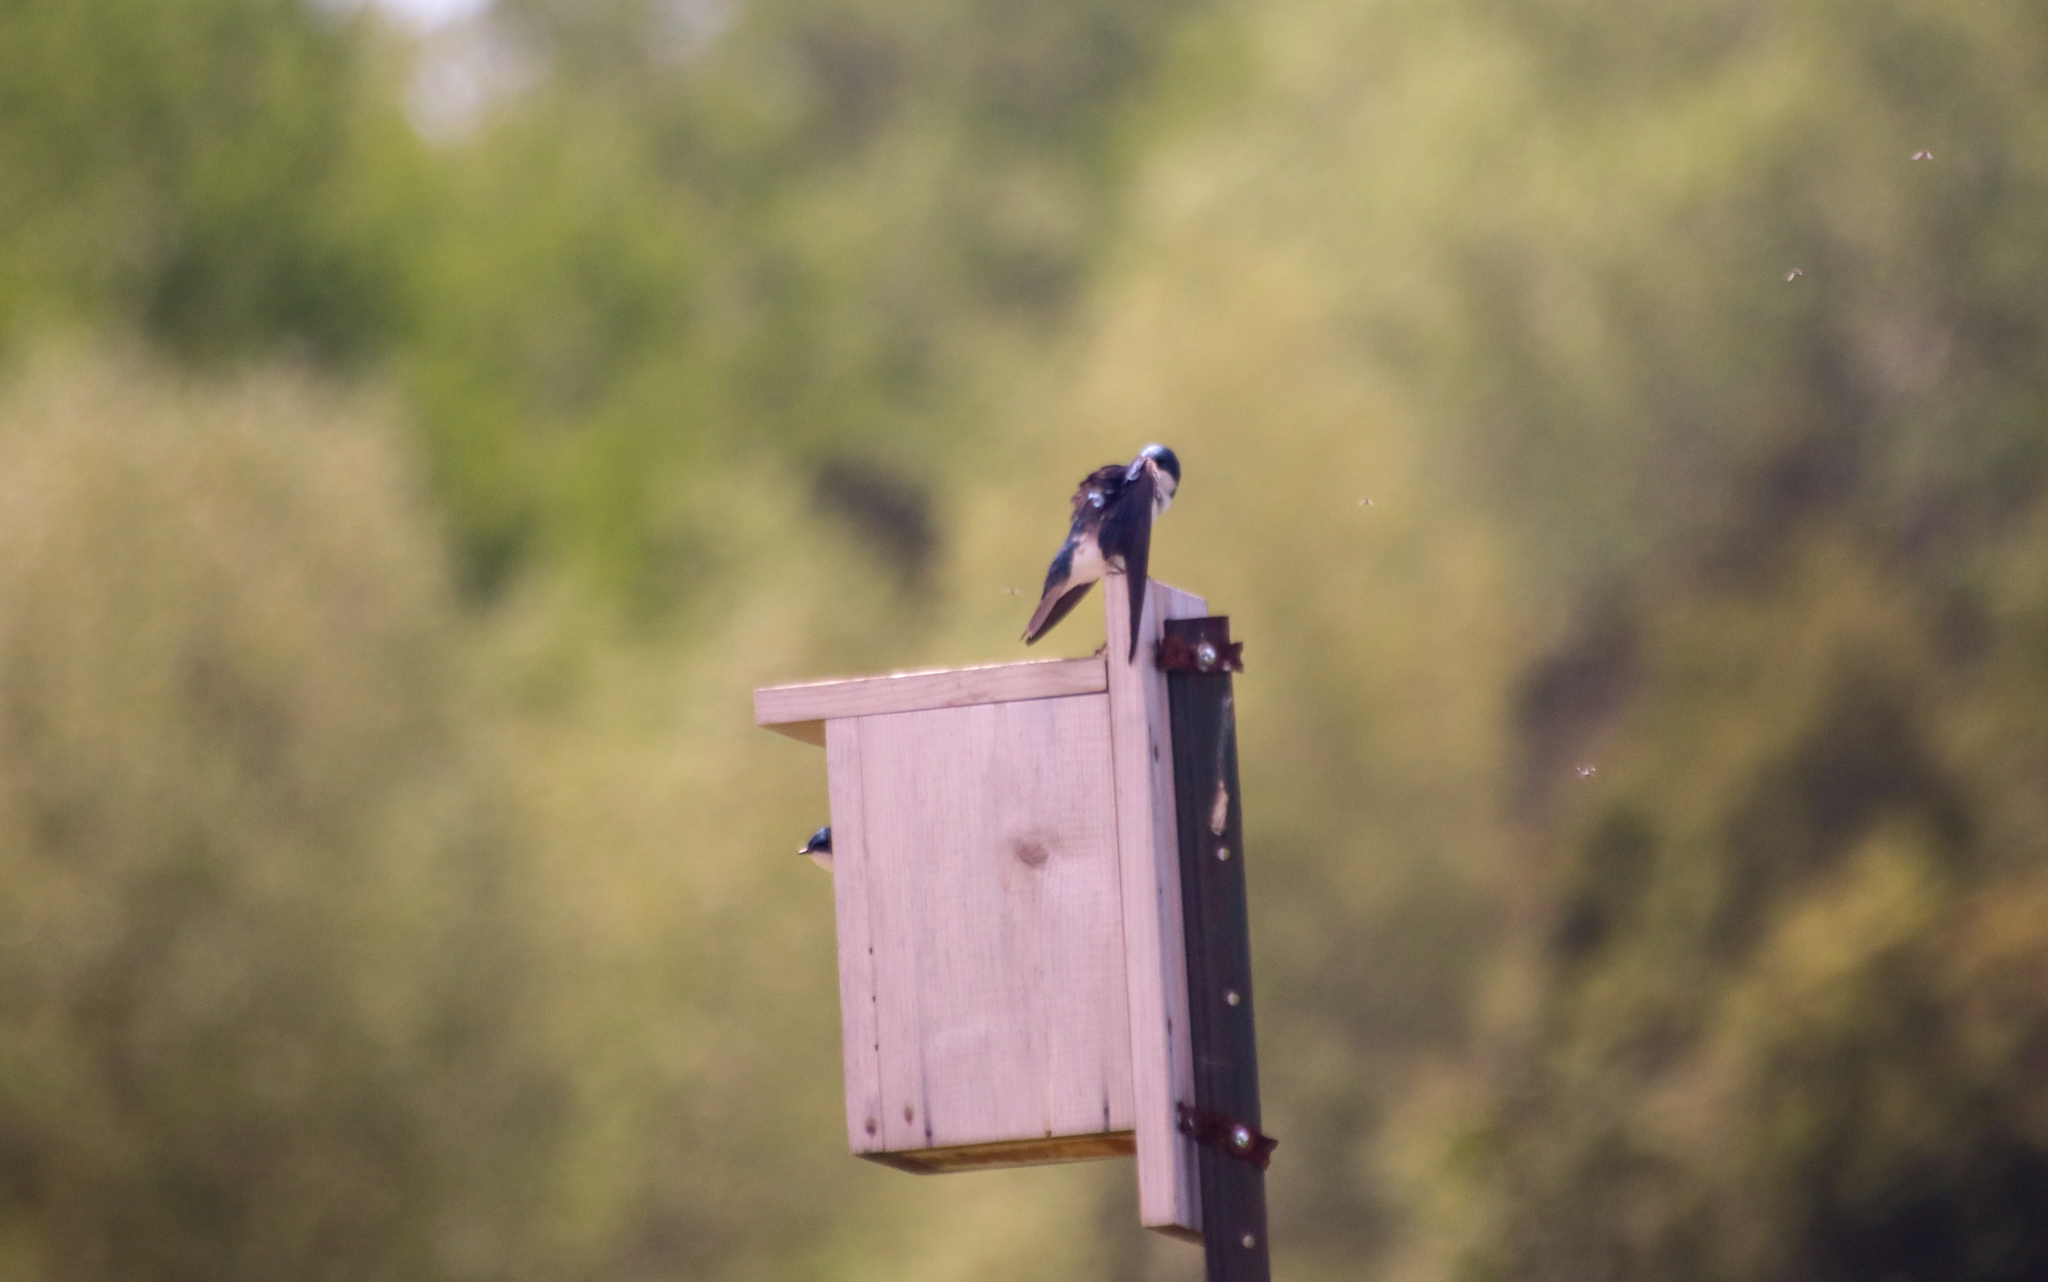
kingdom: Animalia
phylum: Chordata
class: Aves
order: Passeriformes
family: Hirundinidae
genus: Tachycineta
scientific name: Tachycineta bicolor
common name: Tree swallow
